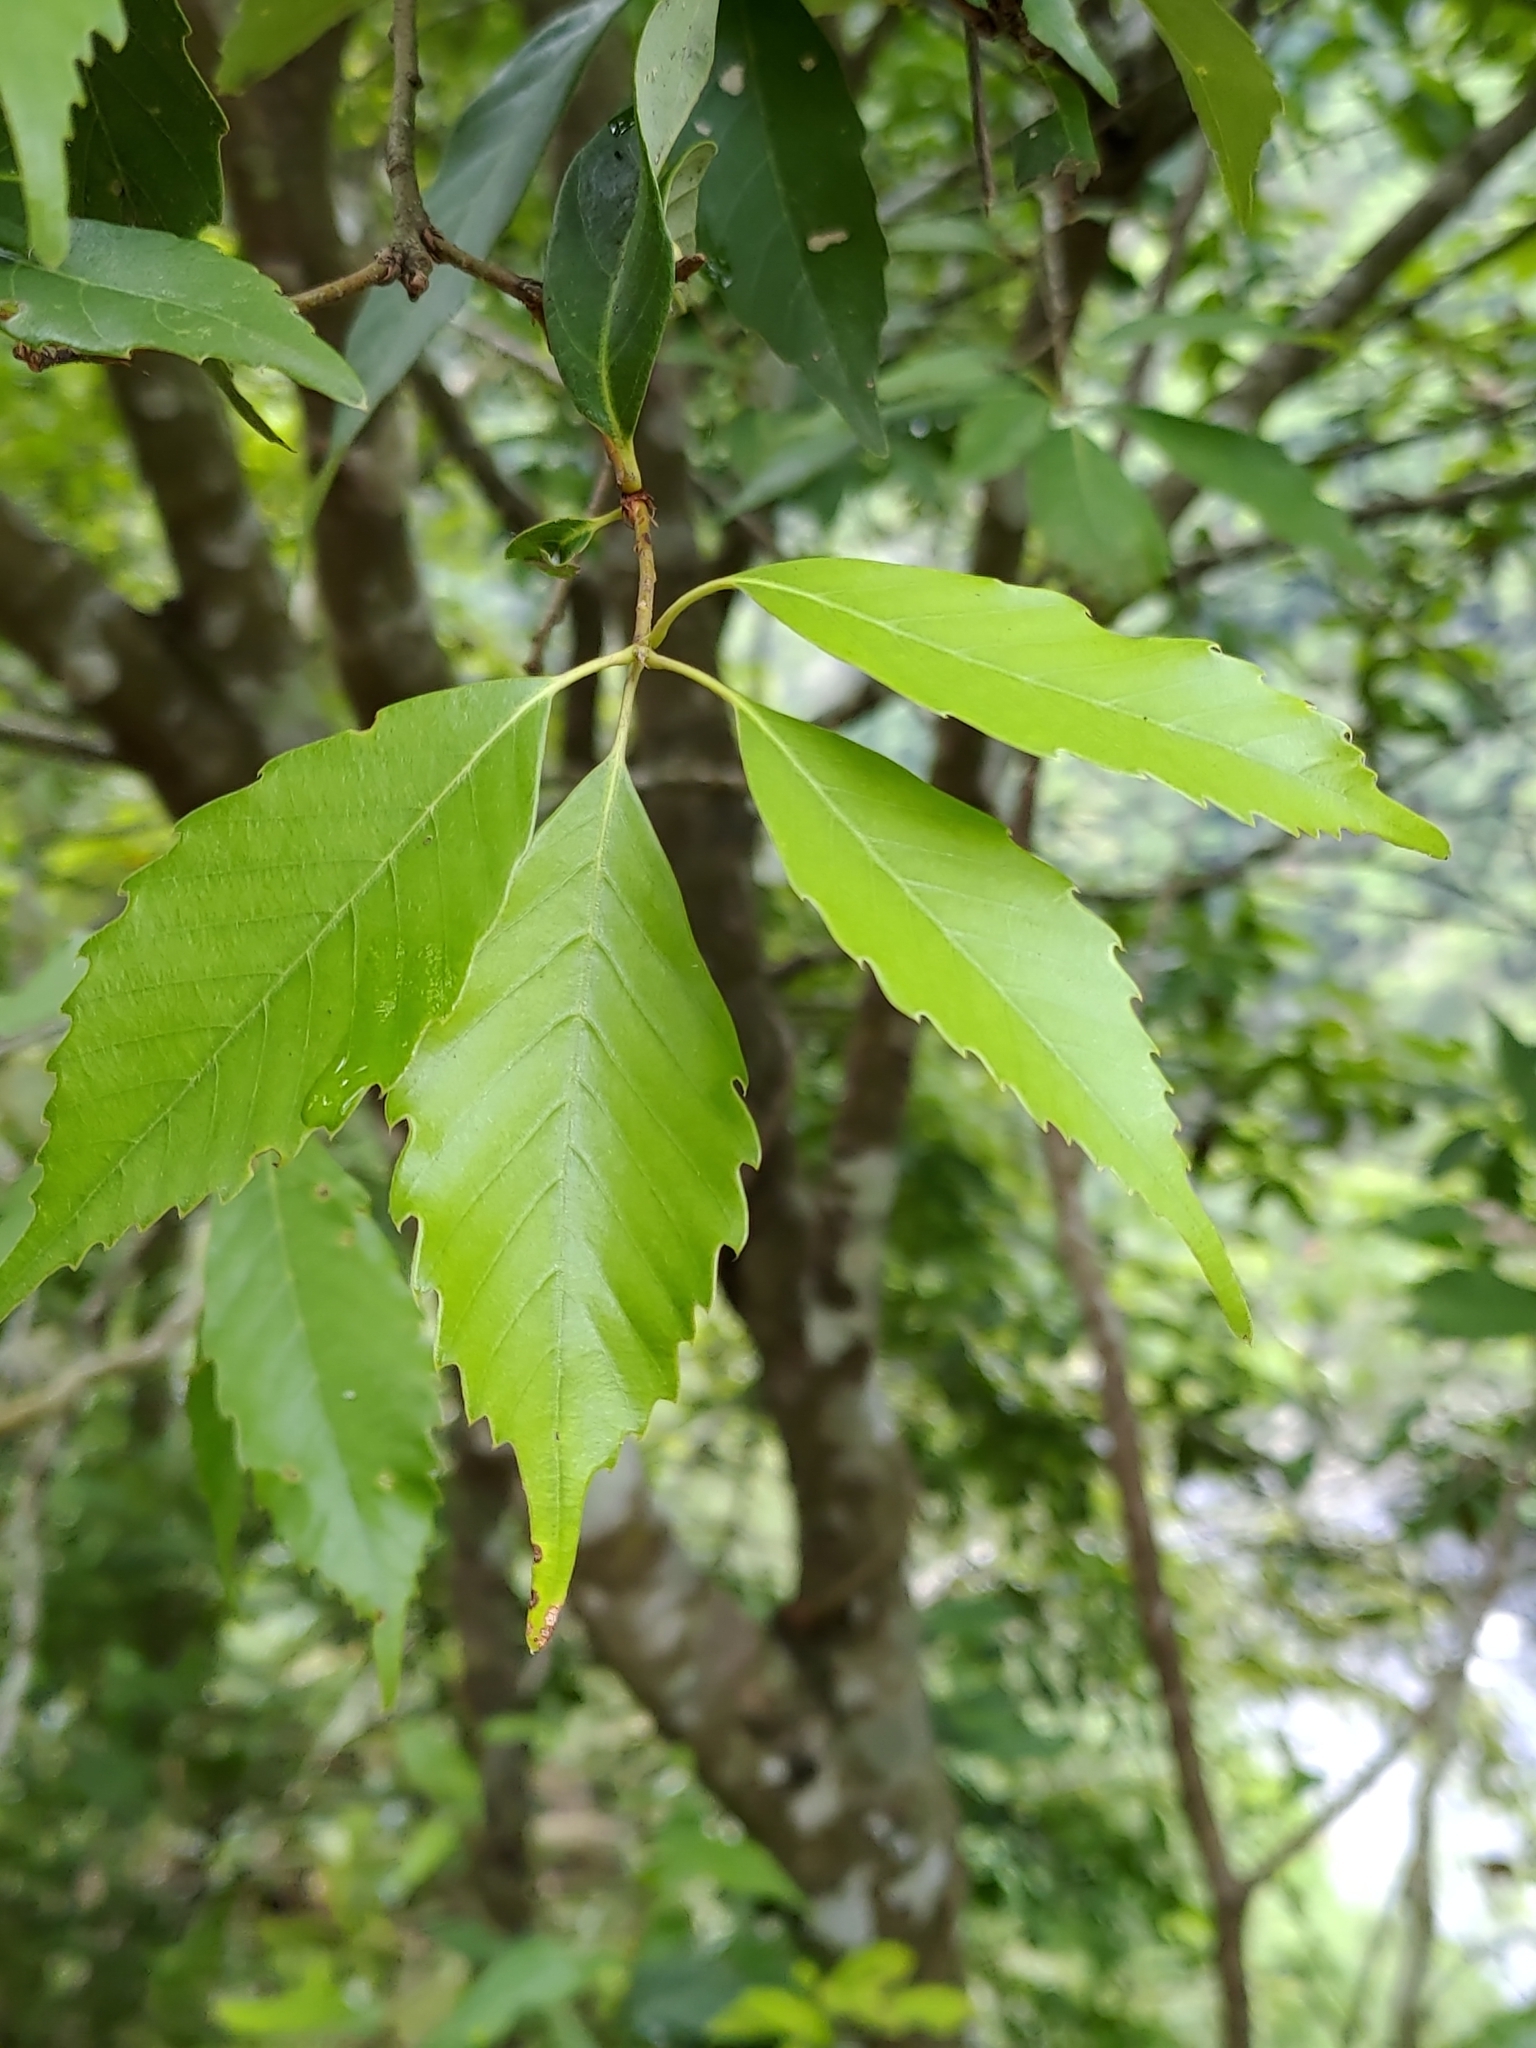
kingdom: Plantae
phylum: Tracheophyta
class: Magnoliopsida
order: Fagales
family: Fagaceae
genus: Quercus
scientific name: Quercus glauca
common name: Ring-cup oak
